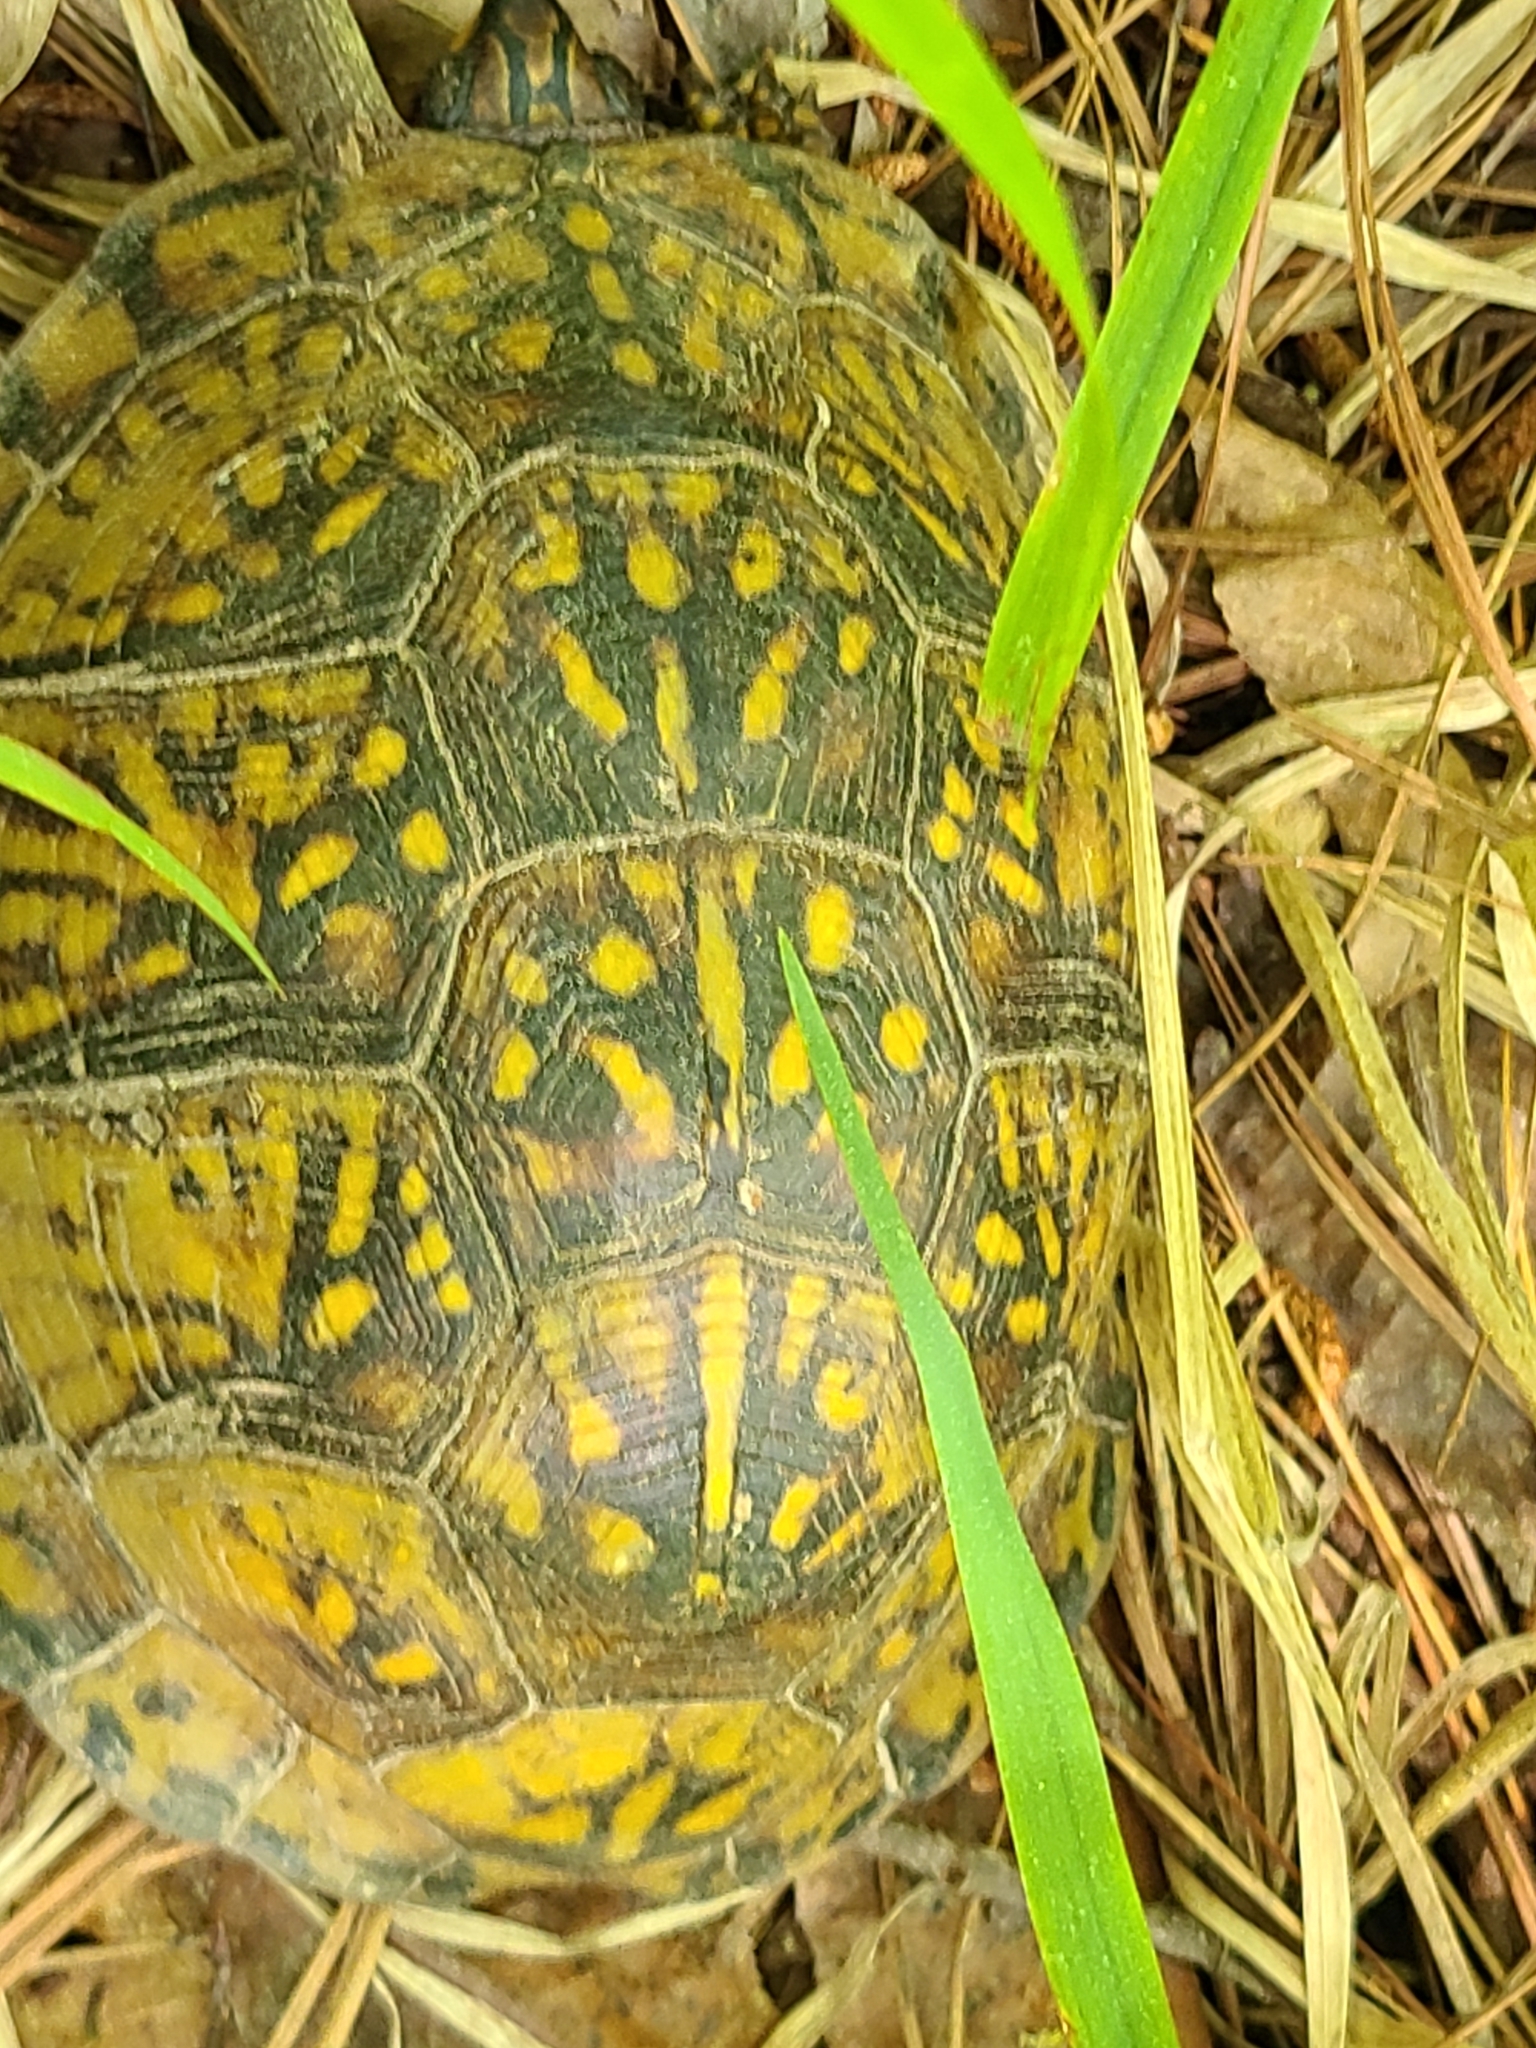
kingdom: Animalia
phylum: Chordata
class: Testudines
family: Emydidae
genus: Terrapene
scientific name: Terrapene carolina
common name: Common box turtle
